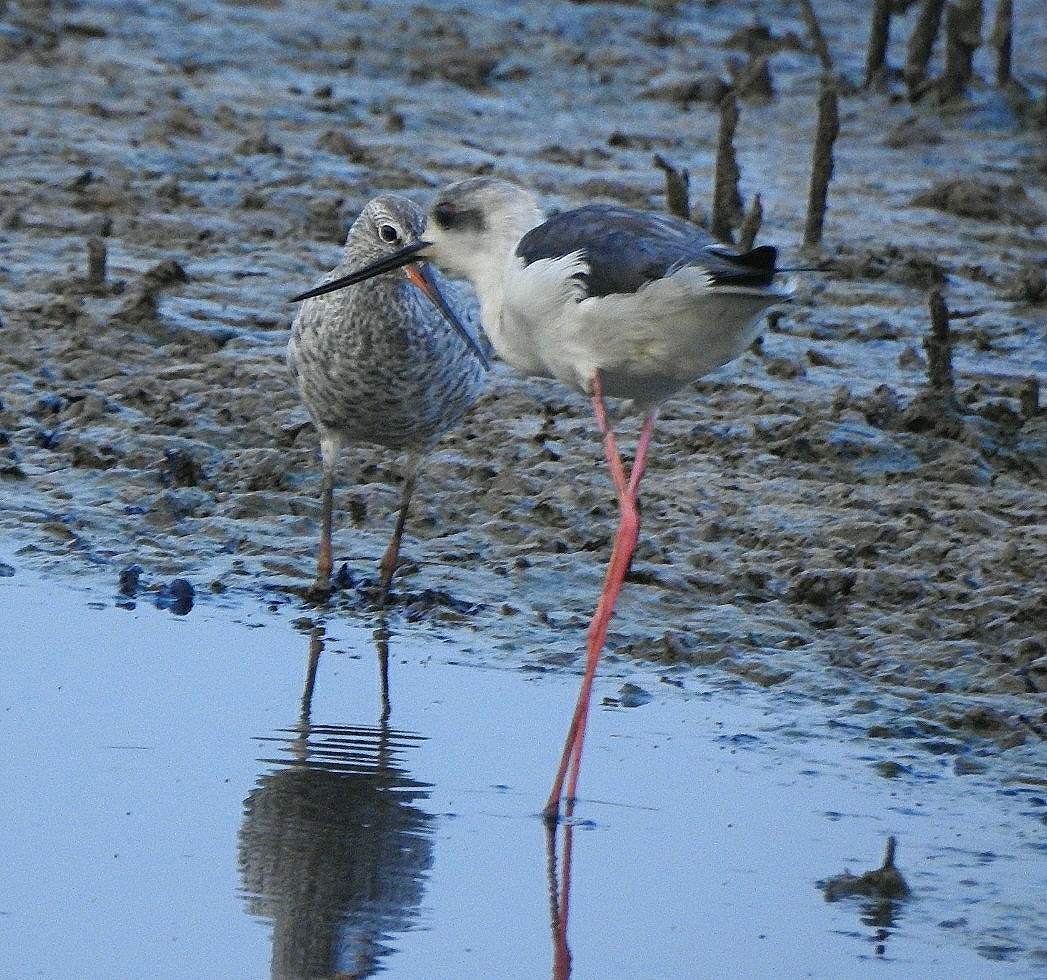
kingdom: Animalia
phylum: Chordata
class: Aves
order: Charadriiformes
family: Recurvirostridae
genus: Himantopus
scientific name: Himantopus himantopus
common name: Black-winged stilt
